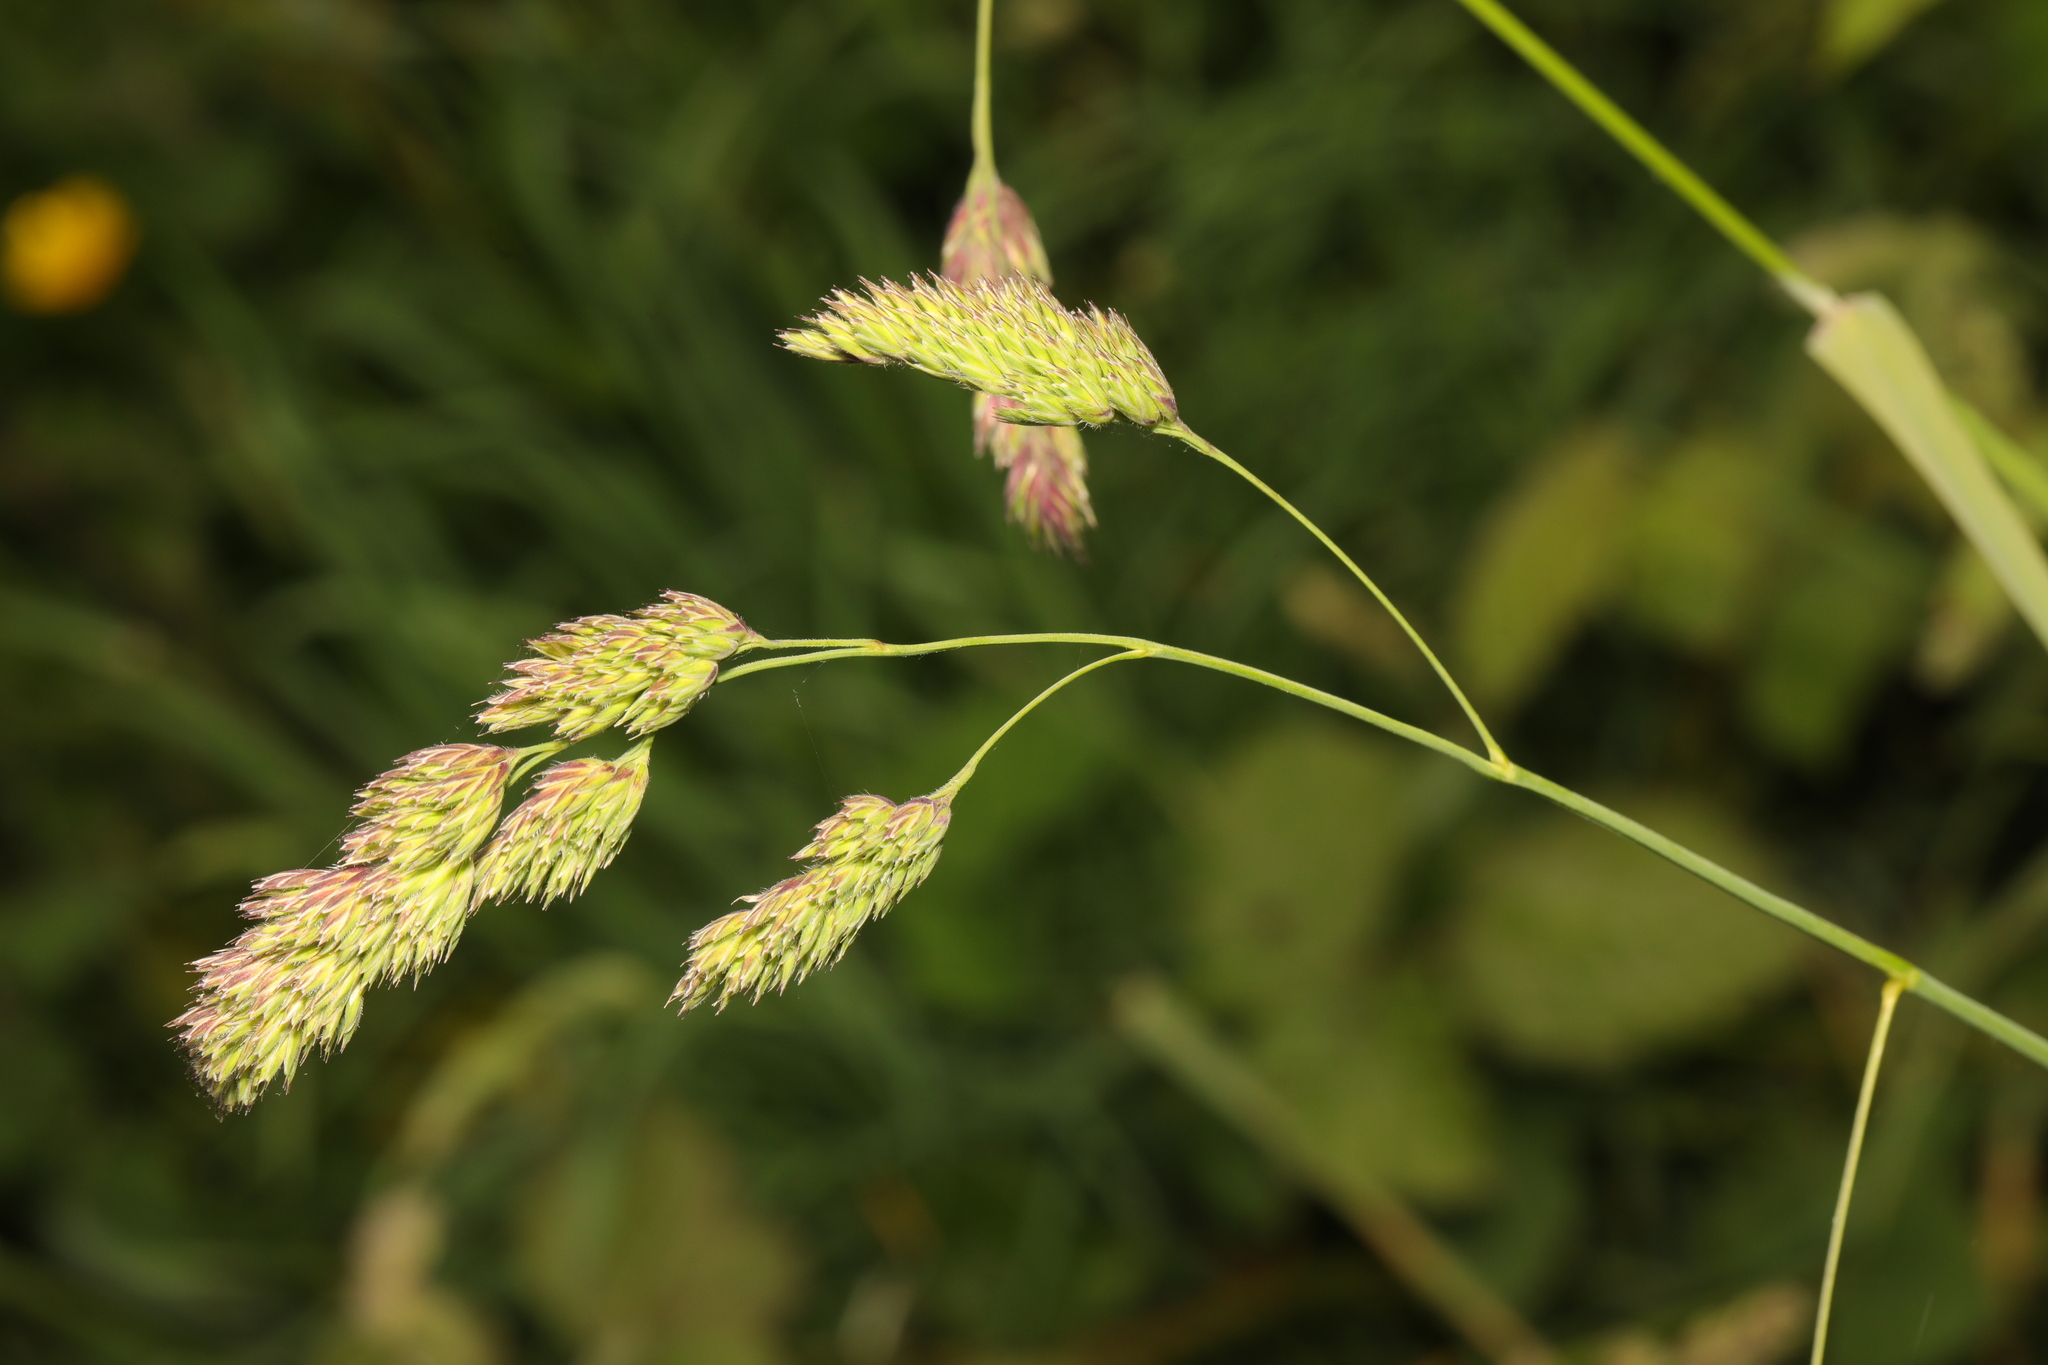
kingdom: Plantae
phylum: Tracheophyta
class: Liliopsida
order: Poales
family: Poaceae
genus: Dactylis
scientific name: Dactylis glomerata
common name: Orchardgrass
